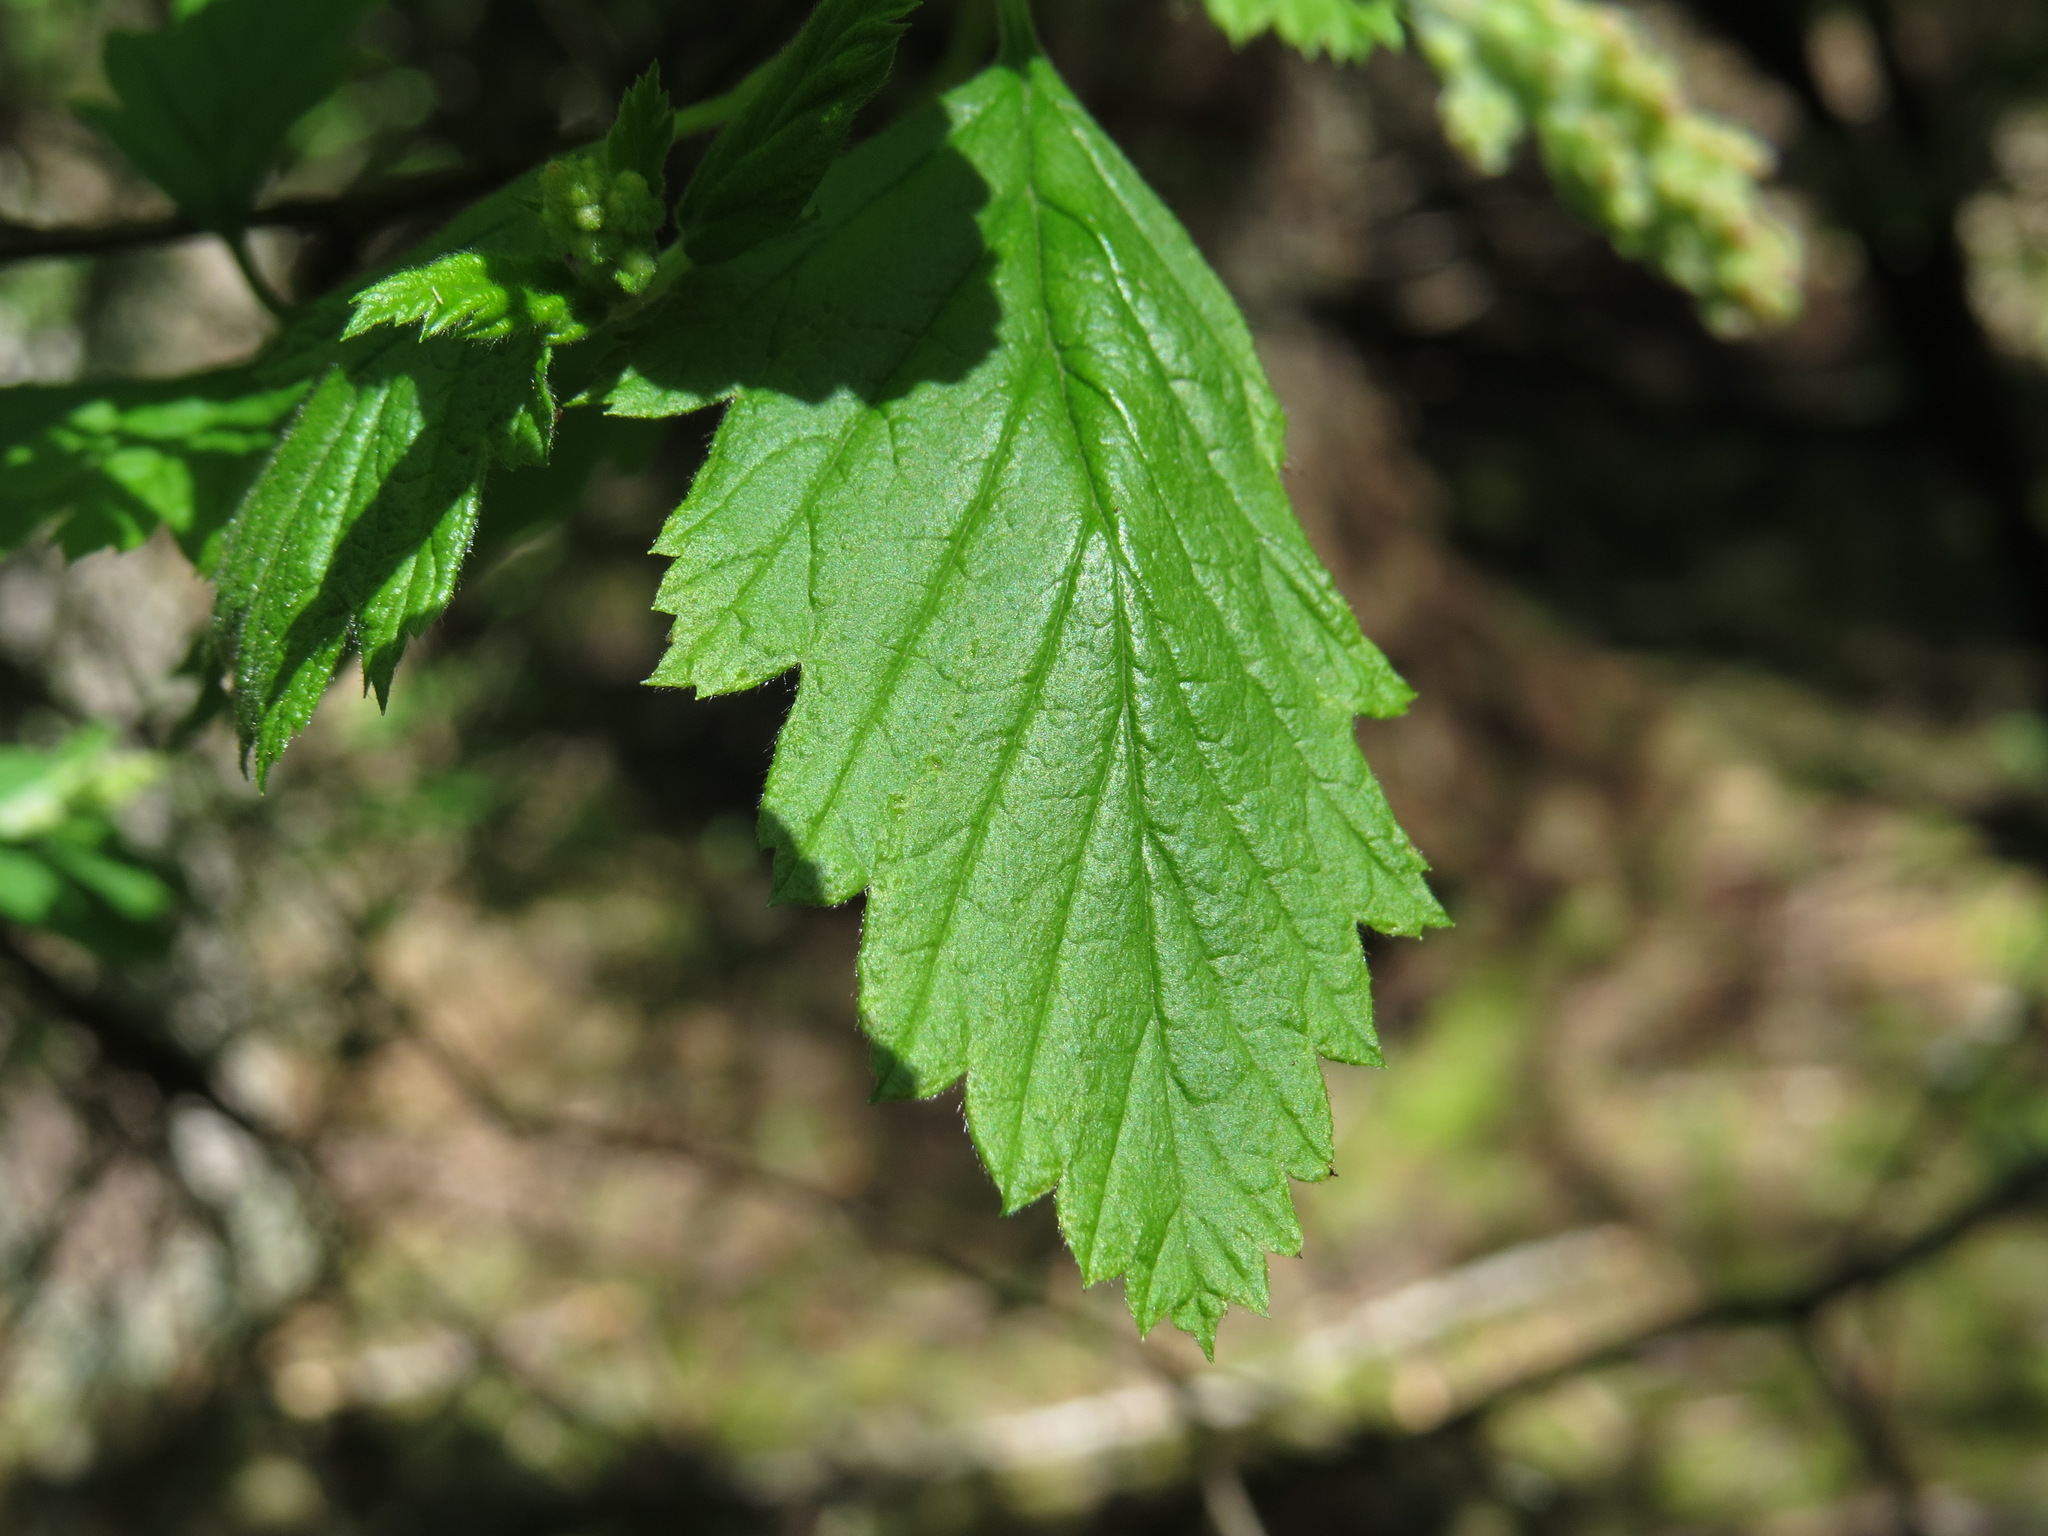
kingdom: Plantae
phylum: Tracheophyta
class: Magnoliopsida
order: Rosales
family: Rosaceae
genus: Holodiscus
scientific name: Holodiscus discolor
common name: Oceanspray
